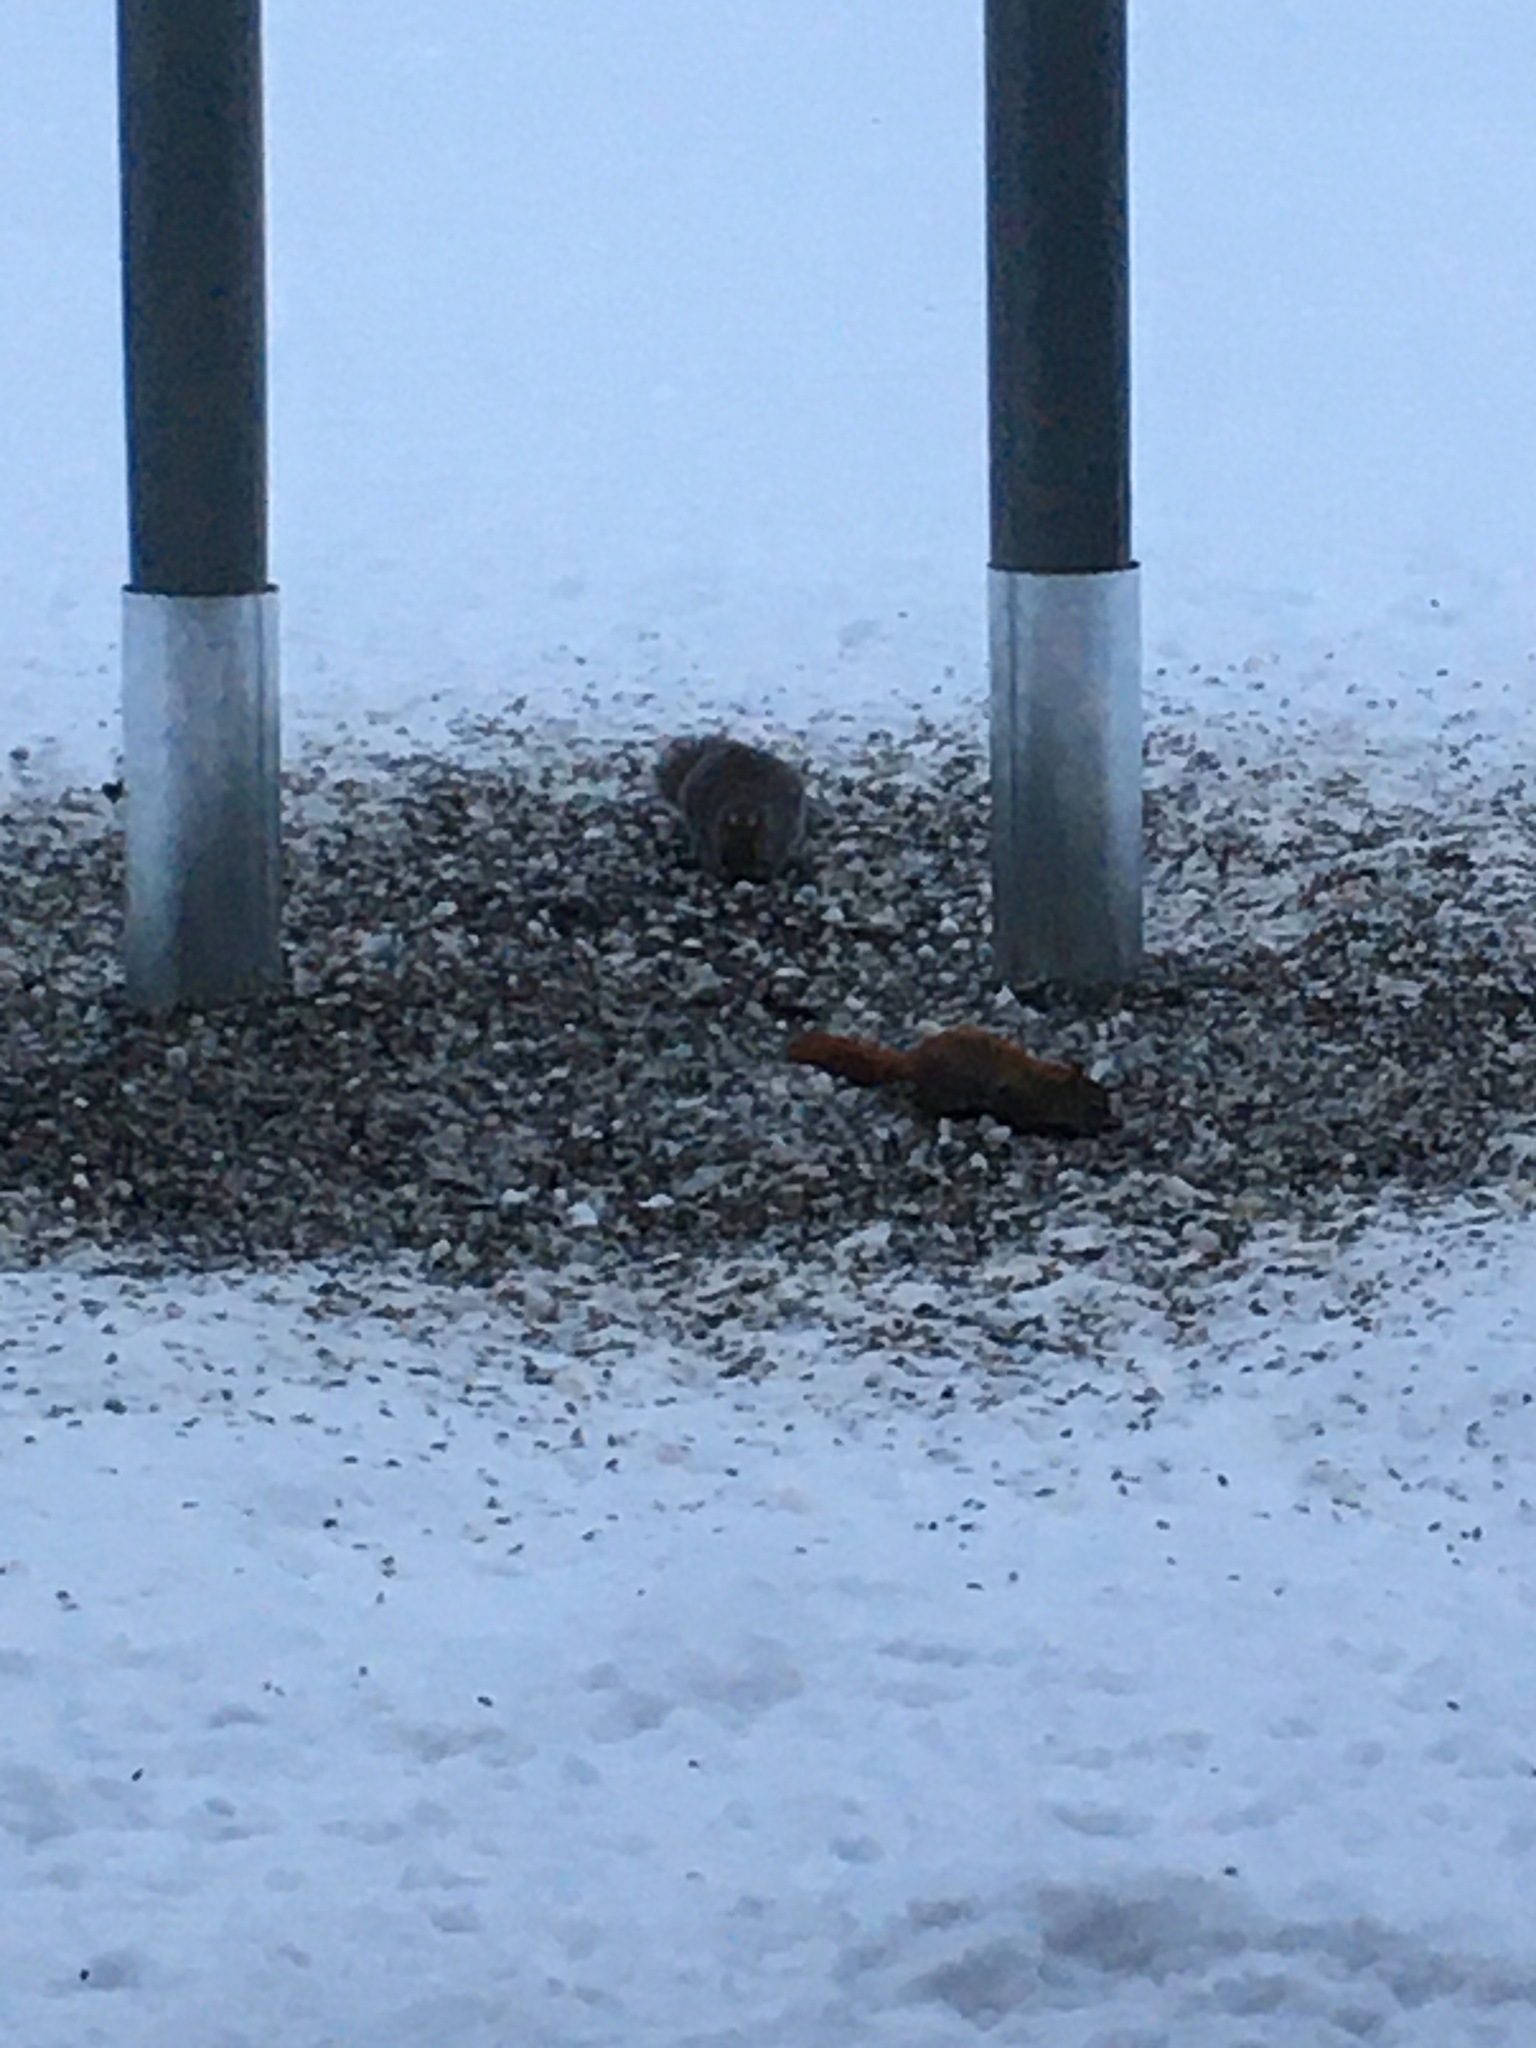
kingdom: Animalia
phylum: Chordata
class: Mammalia
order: Rodentia
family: Sciuridae
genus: Tamiasciurus
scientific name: Tamiasciurus hudsonicus
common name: Red squirrel
